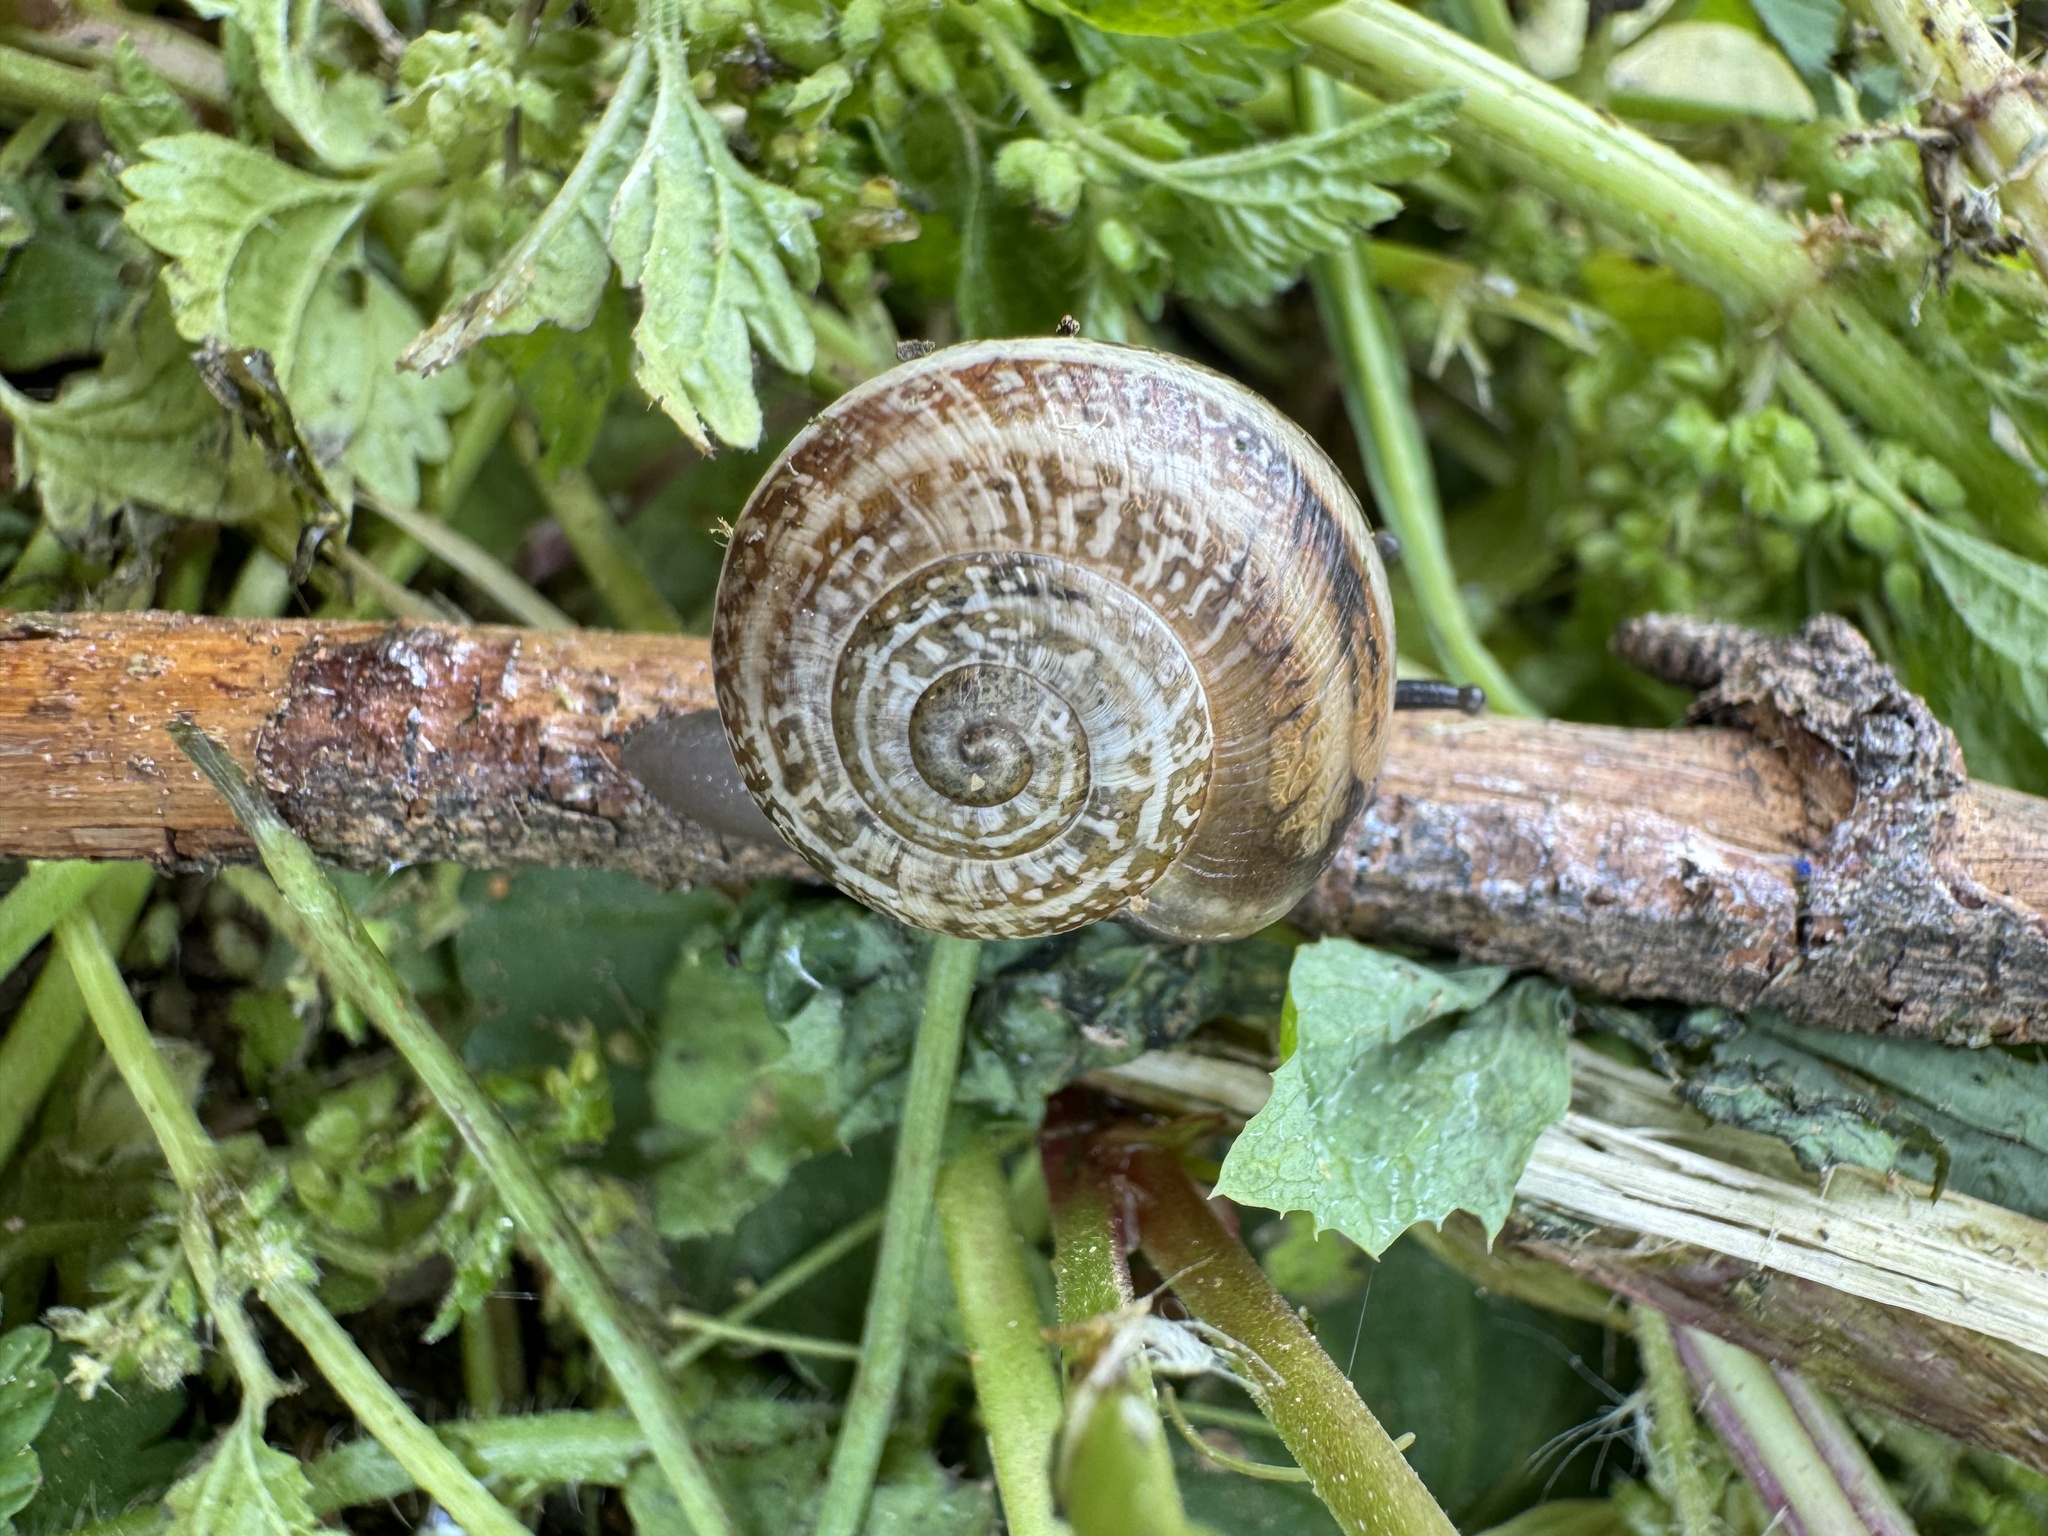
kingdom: Animalia
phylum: Mollusca
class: Gastropoda
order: Stylommatophora
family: Helicidae
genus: Otala
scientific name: Otala lactea
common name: Milk snail
